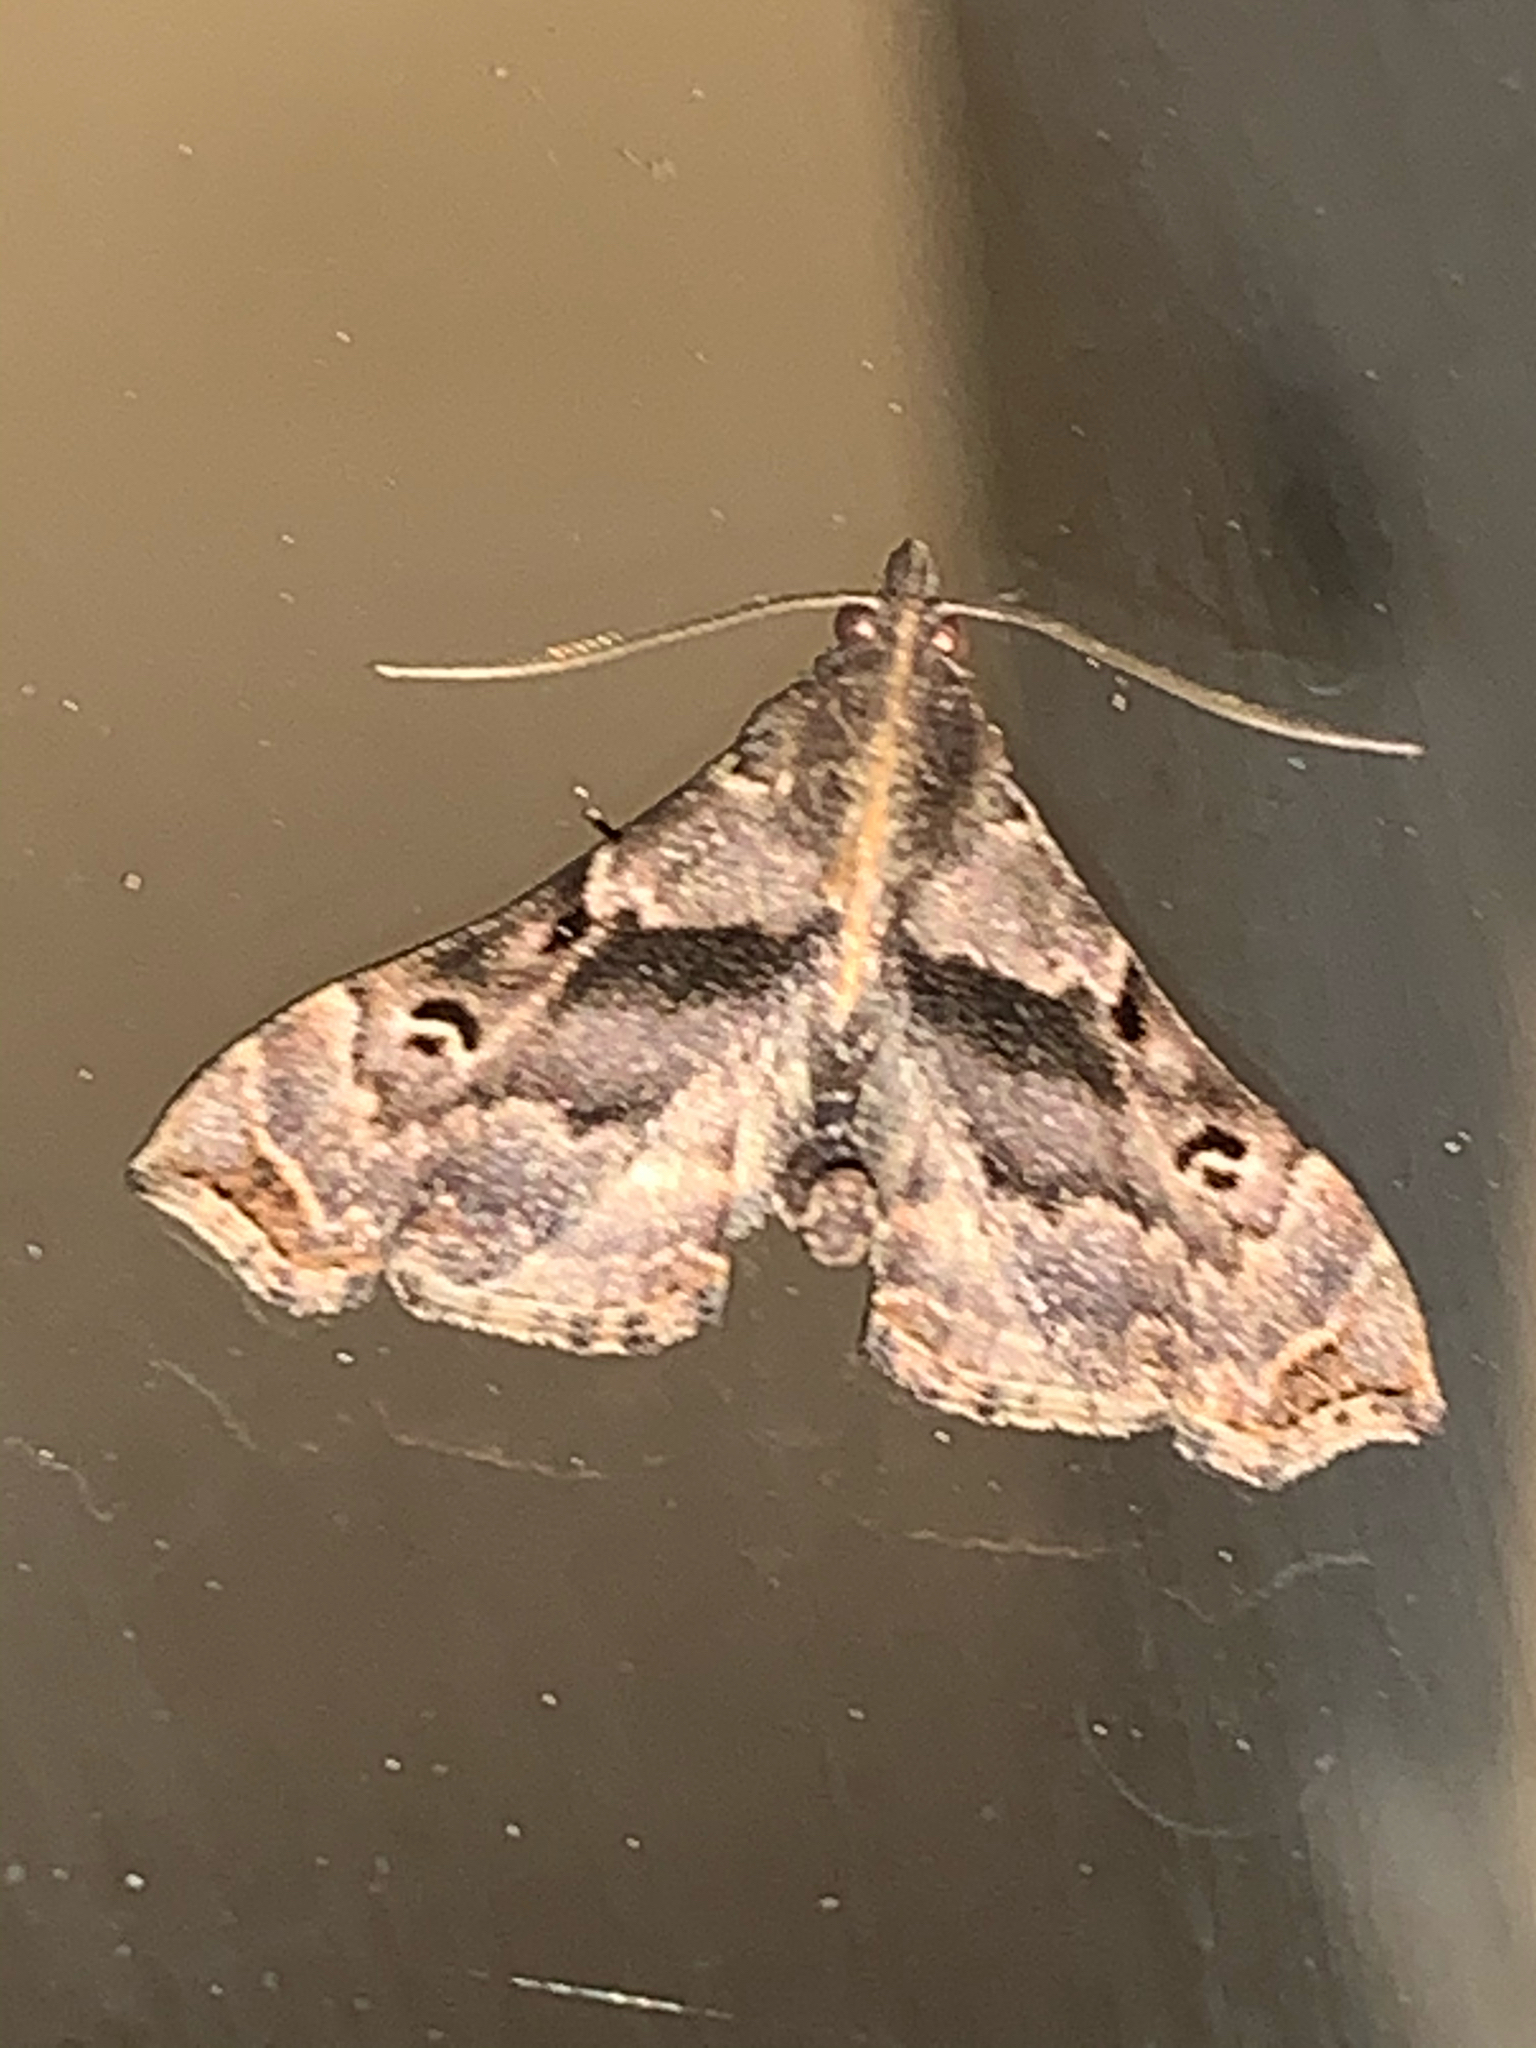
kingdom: Animalia
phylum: Arthropoda
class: Insecta
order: Lepidoptera
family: Erebidae
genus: Palthis
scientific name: Palthis asopialis
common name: Faint-spotted palthis moth
